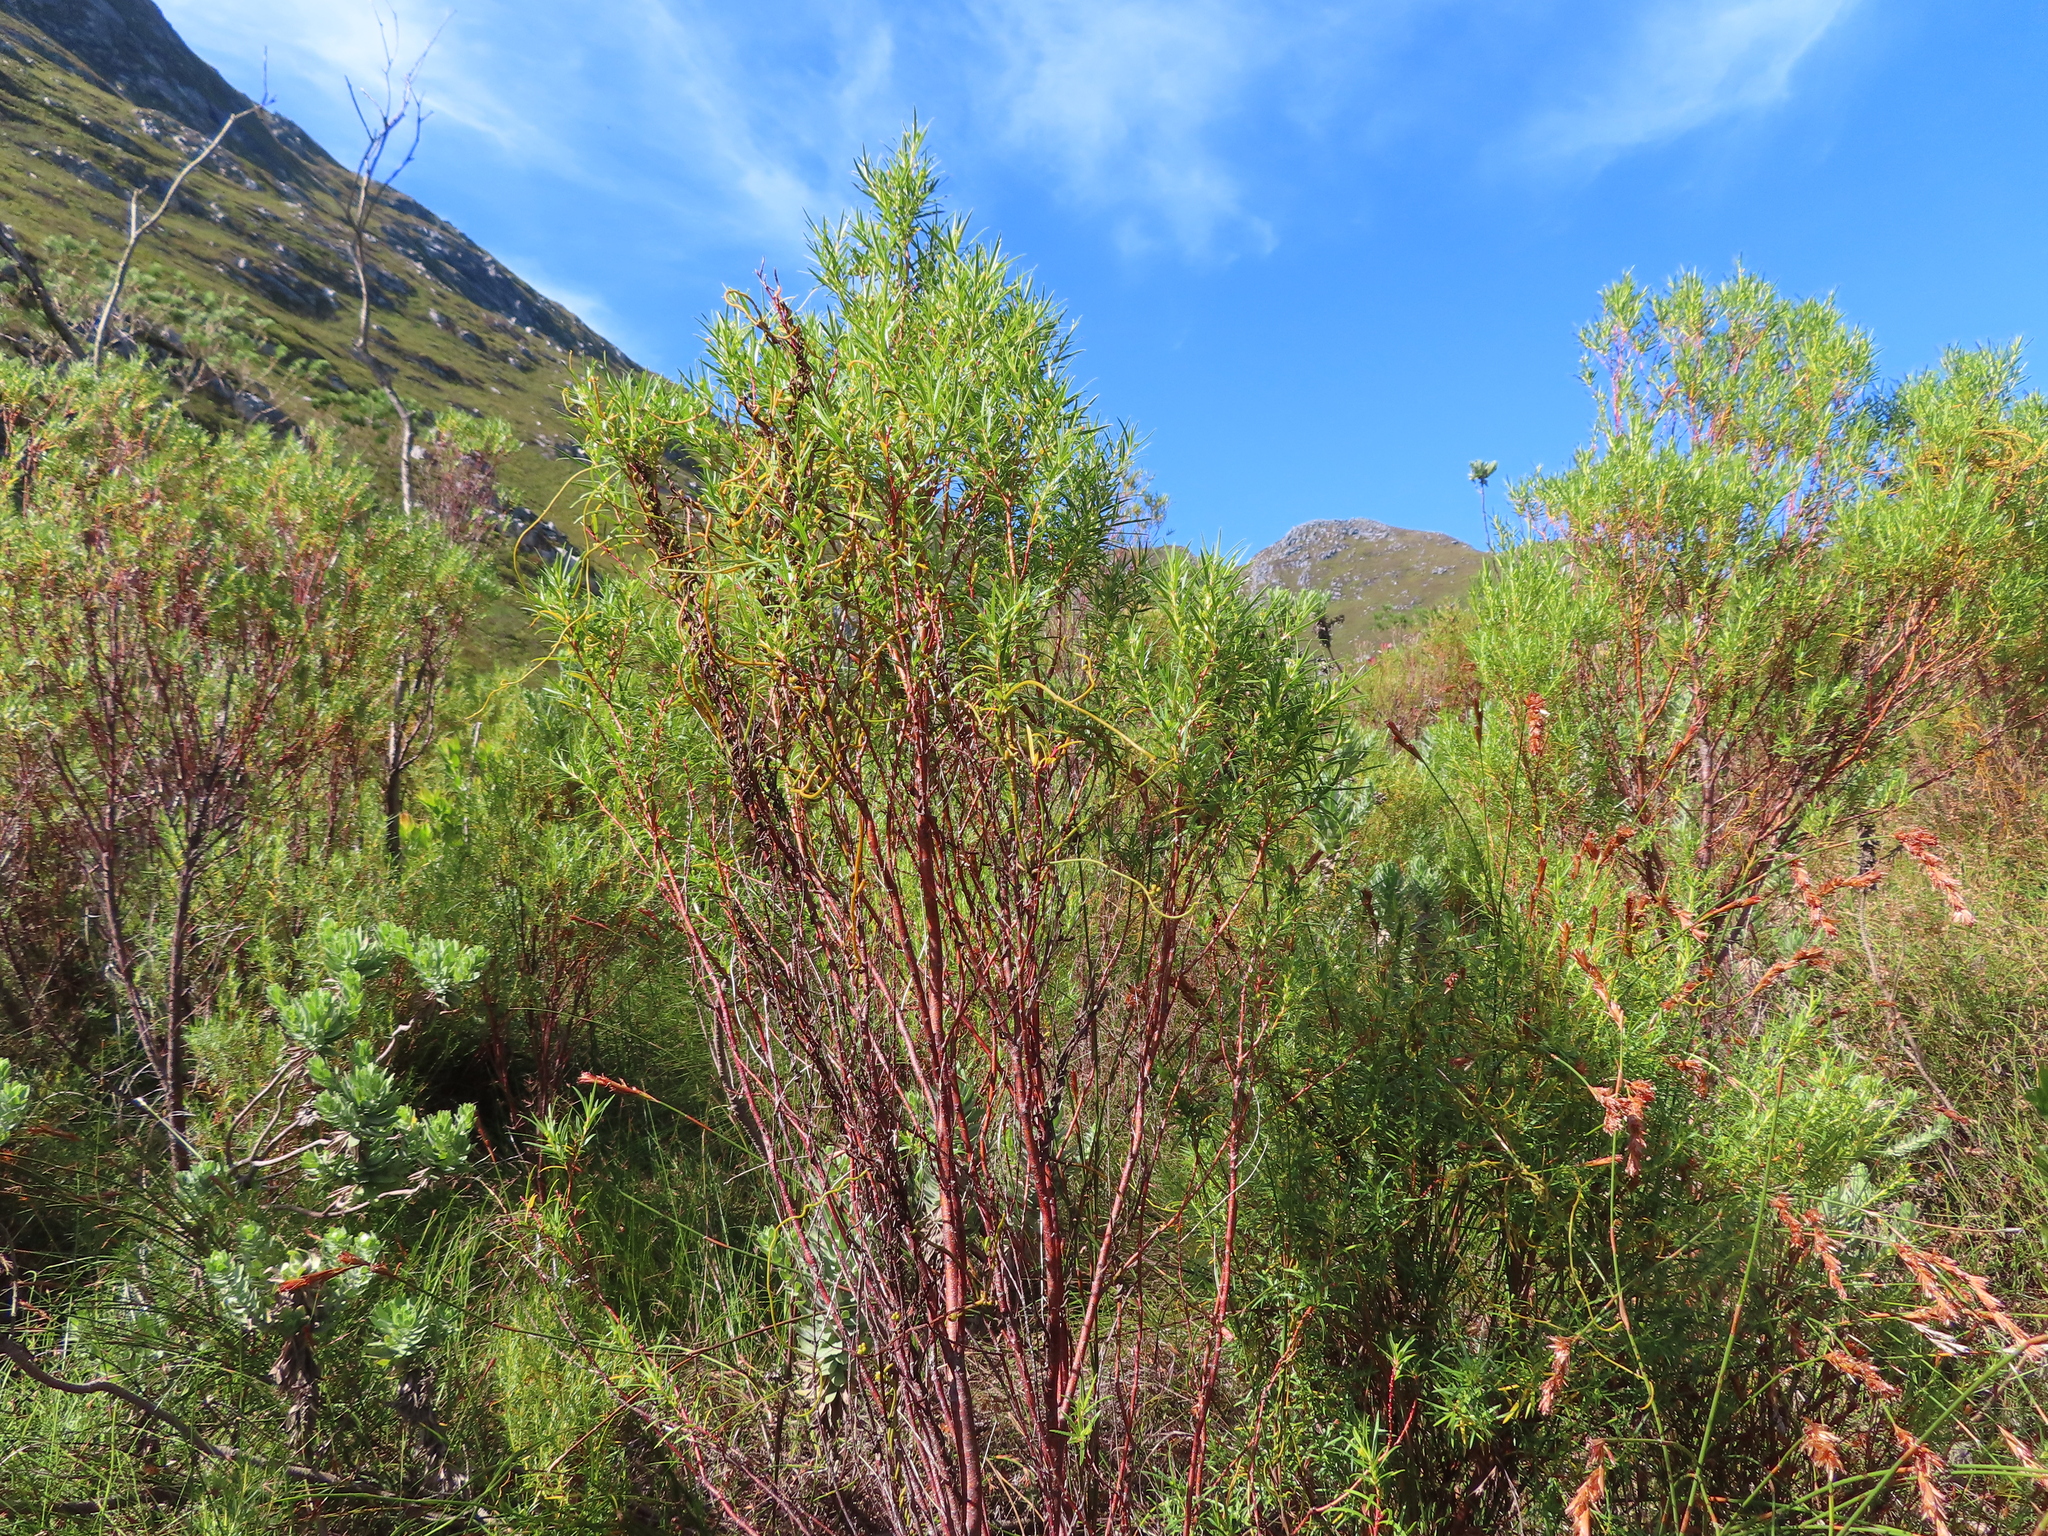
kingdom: Plantae
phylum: Tracheophyta
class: Magnoliopsida
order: Sapindales
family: Rutaceae
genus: Empleurum
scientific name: Empleurum unicapsulare
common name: False buchu
